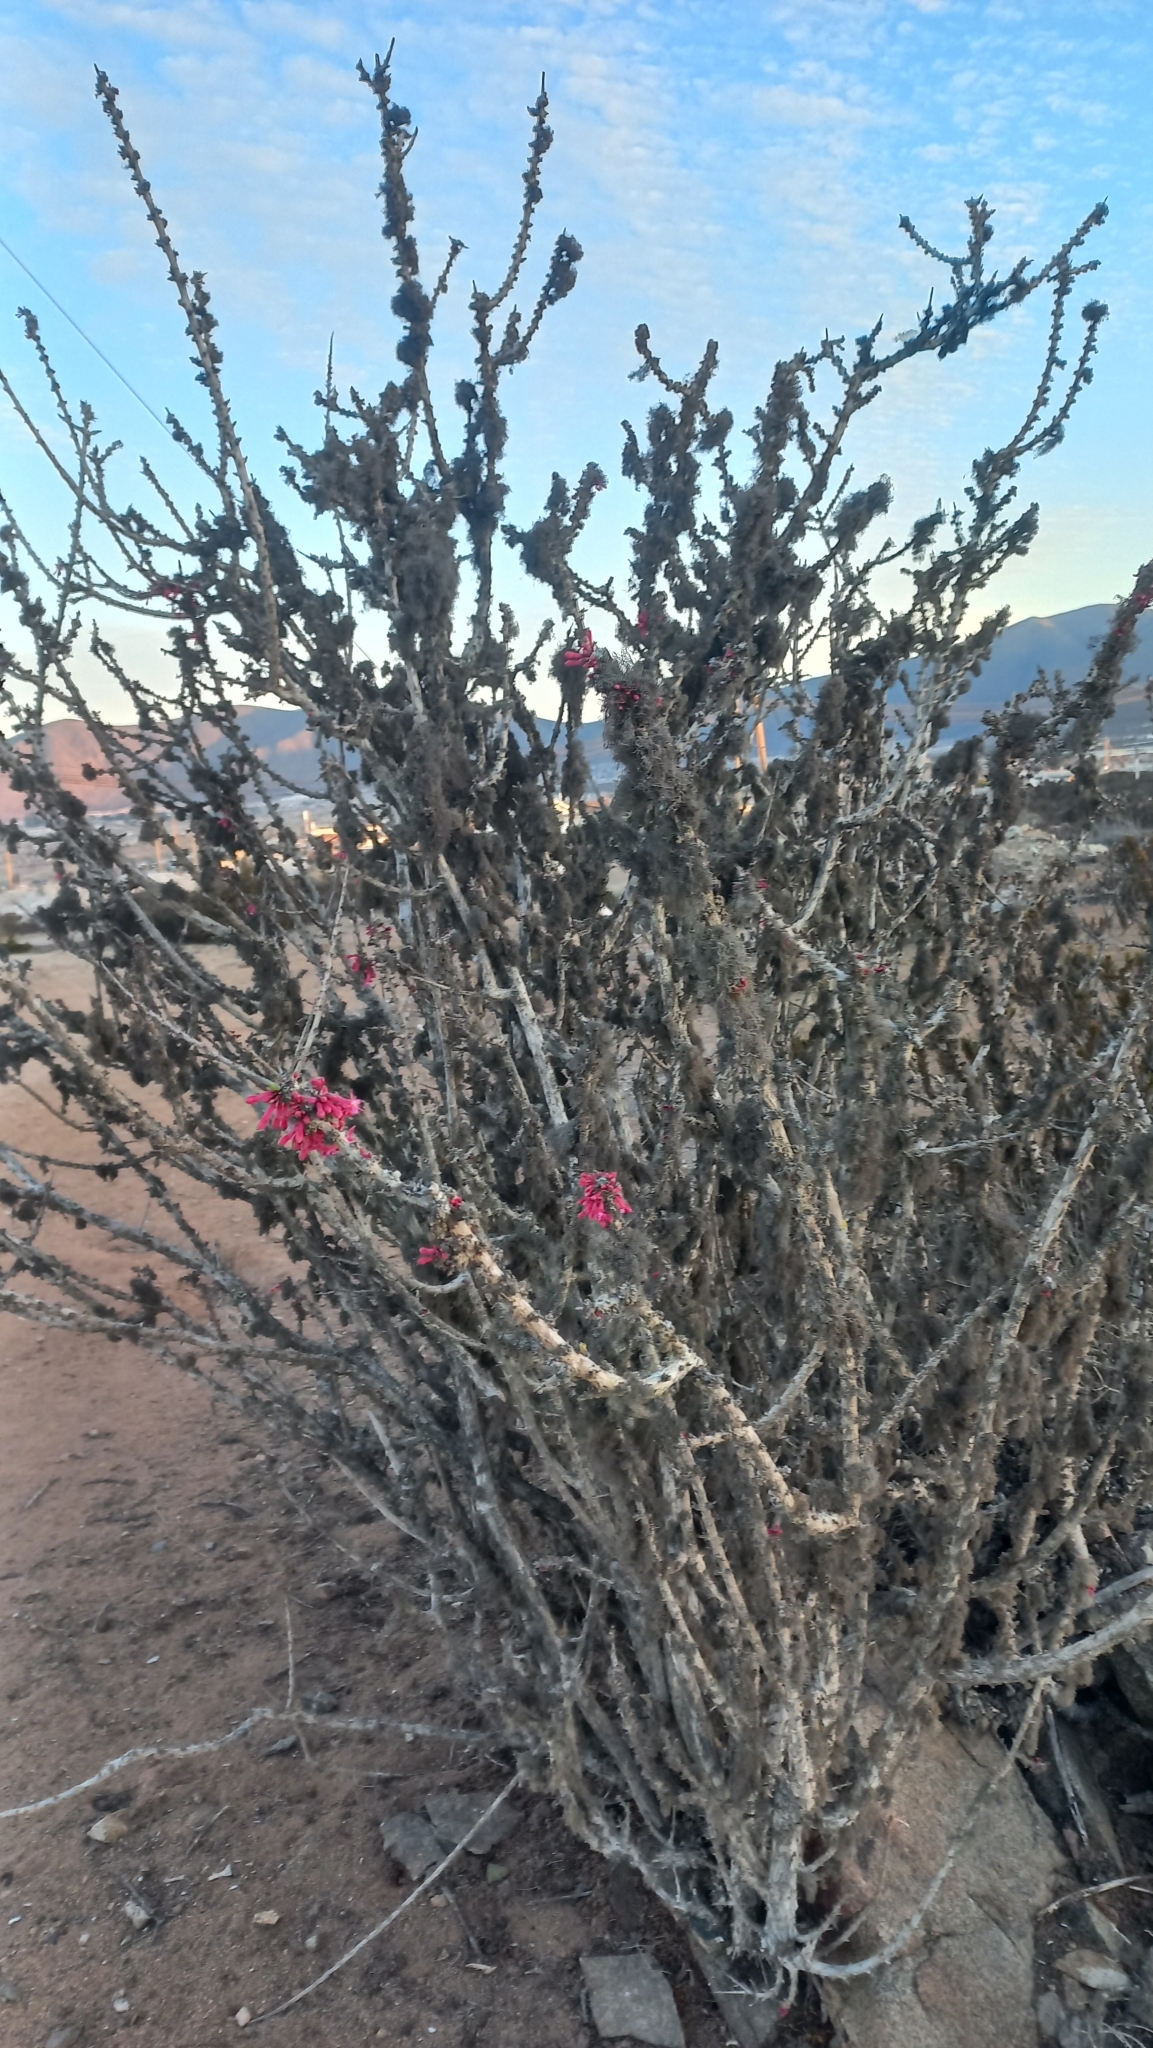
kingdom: Plantae
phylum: Tracheophyta
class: Magnoliopsida
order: Myrtales
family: Onagraceae
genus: Fuchsia
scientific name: Fuchsia lycioides
